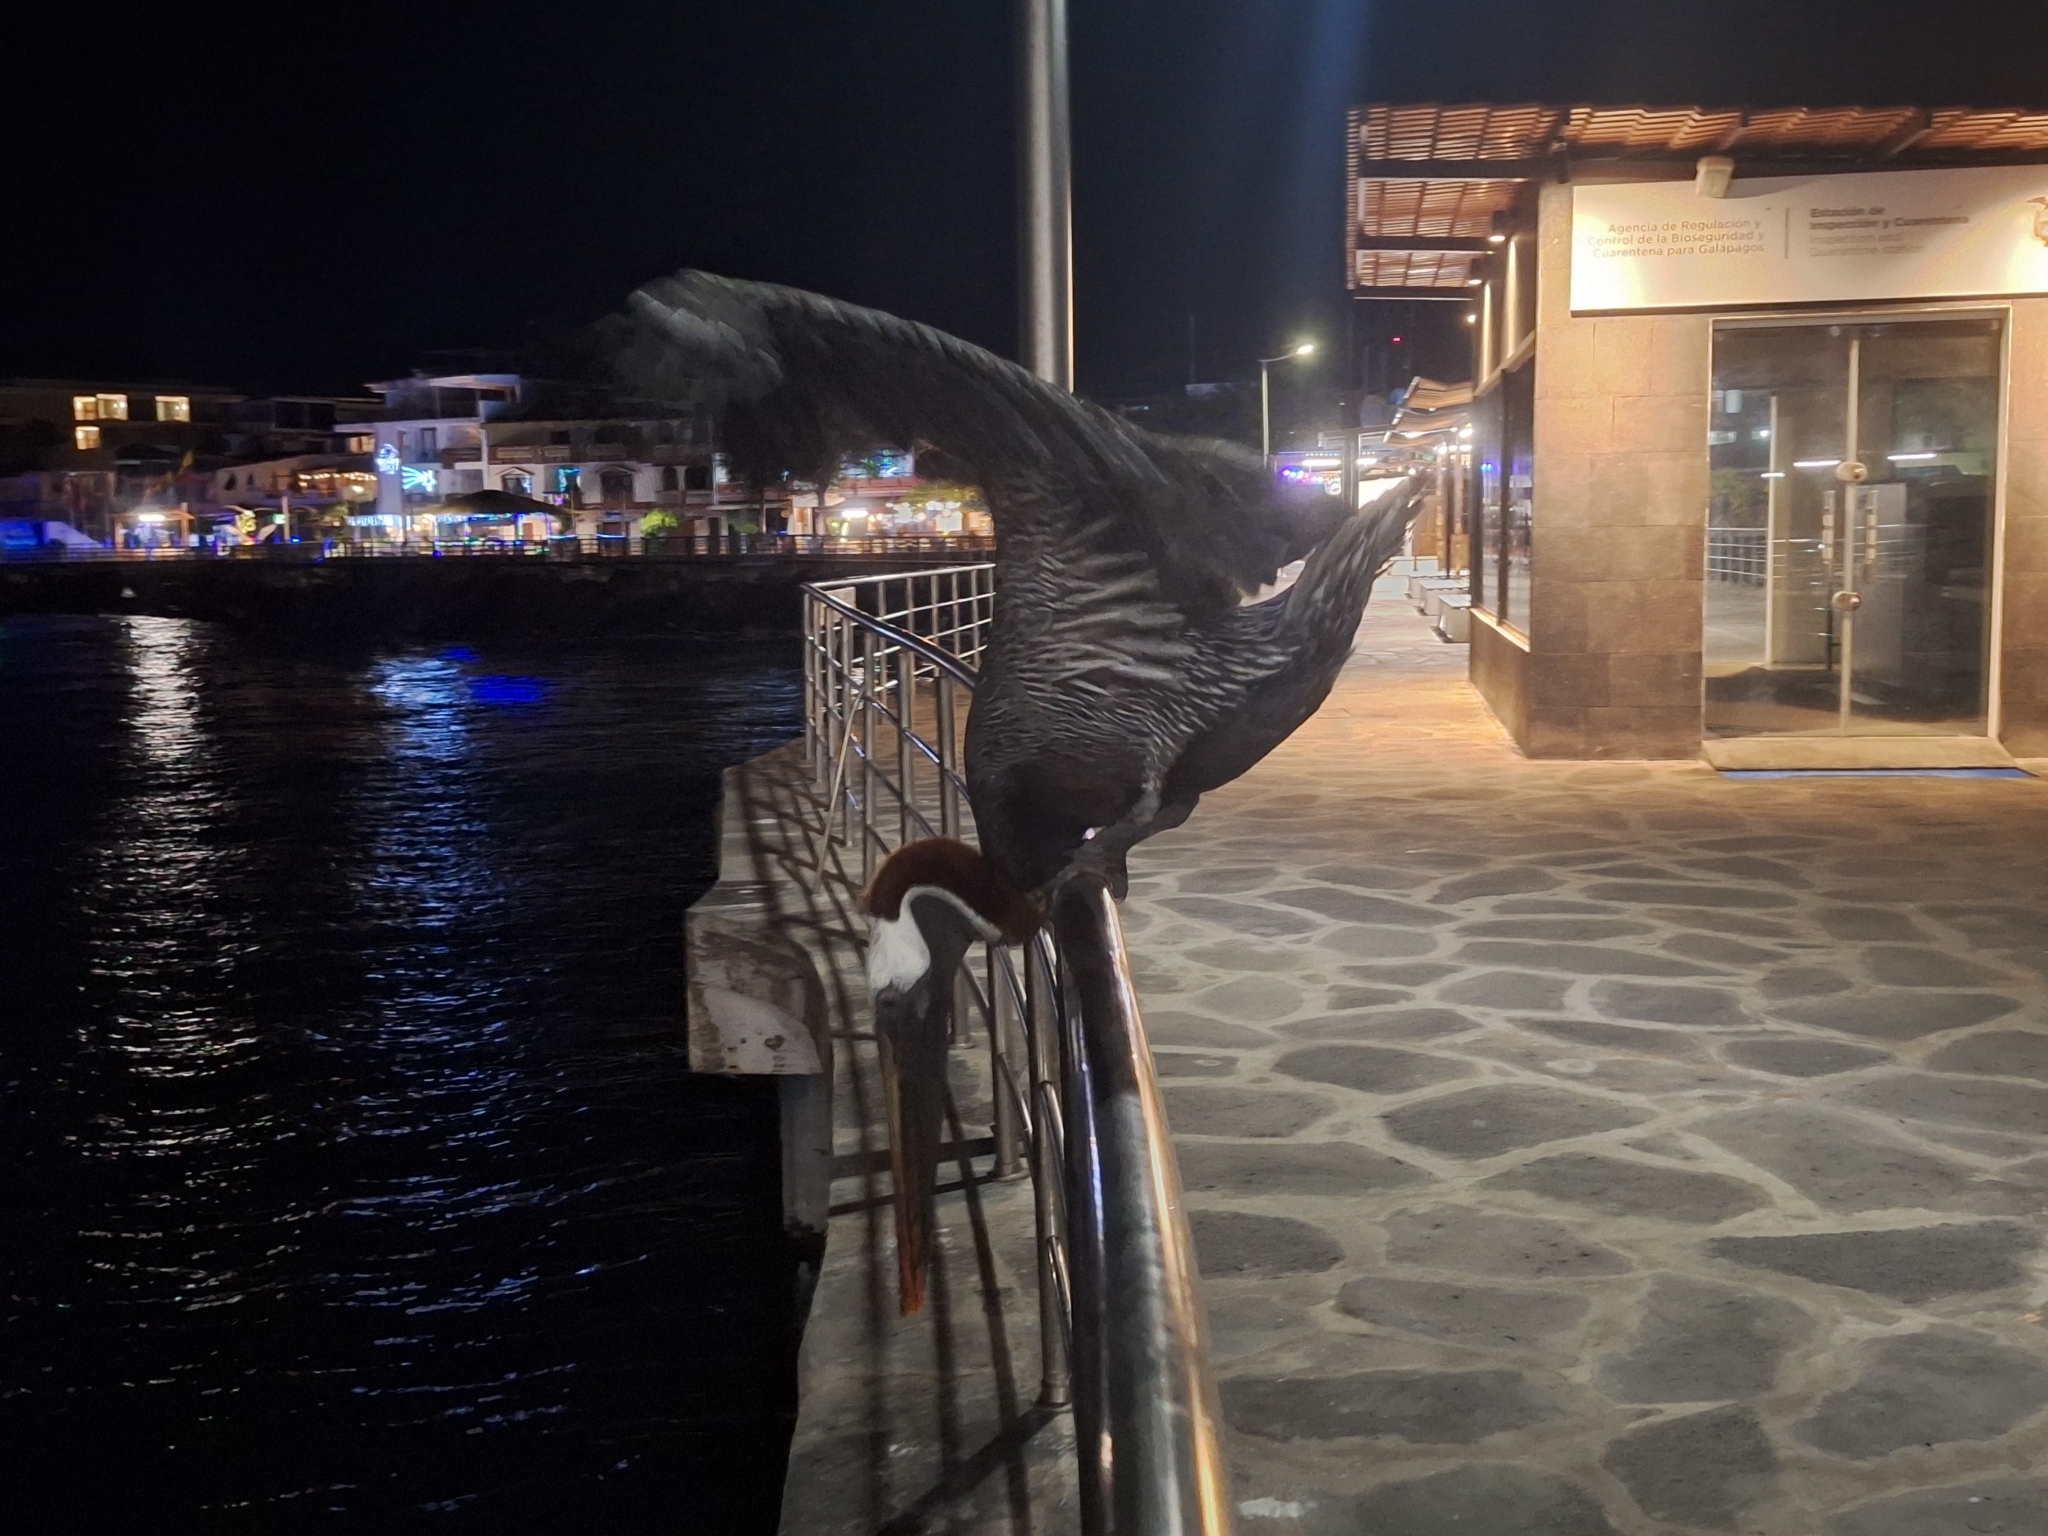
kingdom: Animalia
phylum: Chordata
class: Aves
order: Pelecaniformes
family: Pelecanidae
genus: Pelecanus
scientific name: Pelecanus occidentalis
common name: Brown pelican
